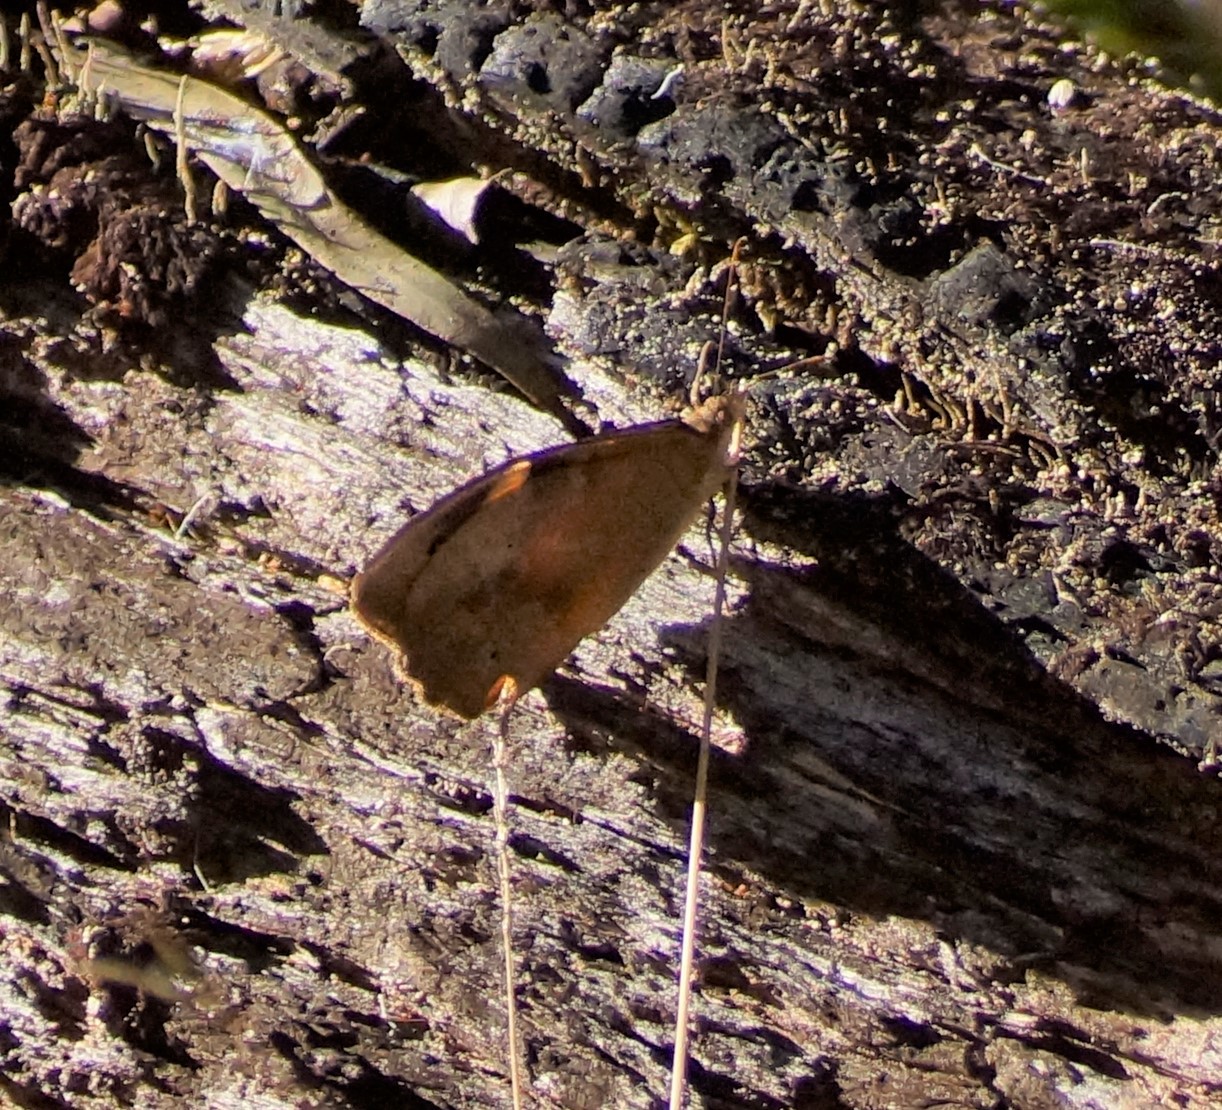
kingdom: Animalia
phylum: Arthropoda
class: Insecta
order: Lepidoptera
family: Nymphalidae
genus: Heteronympha
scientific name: Heteronympha merope
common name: Common brown
